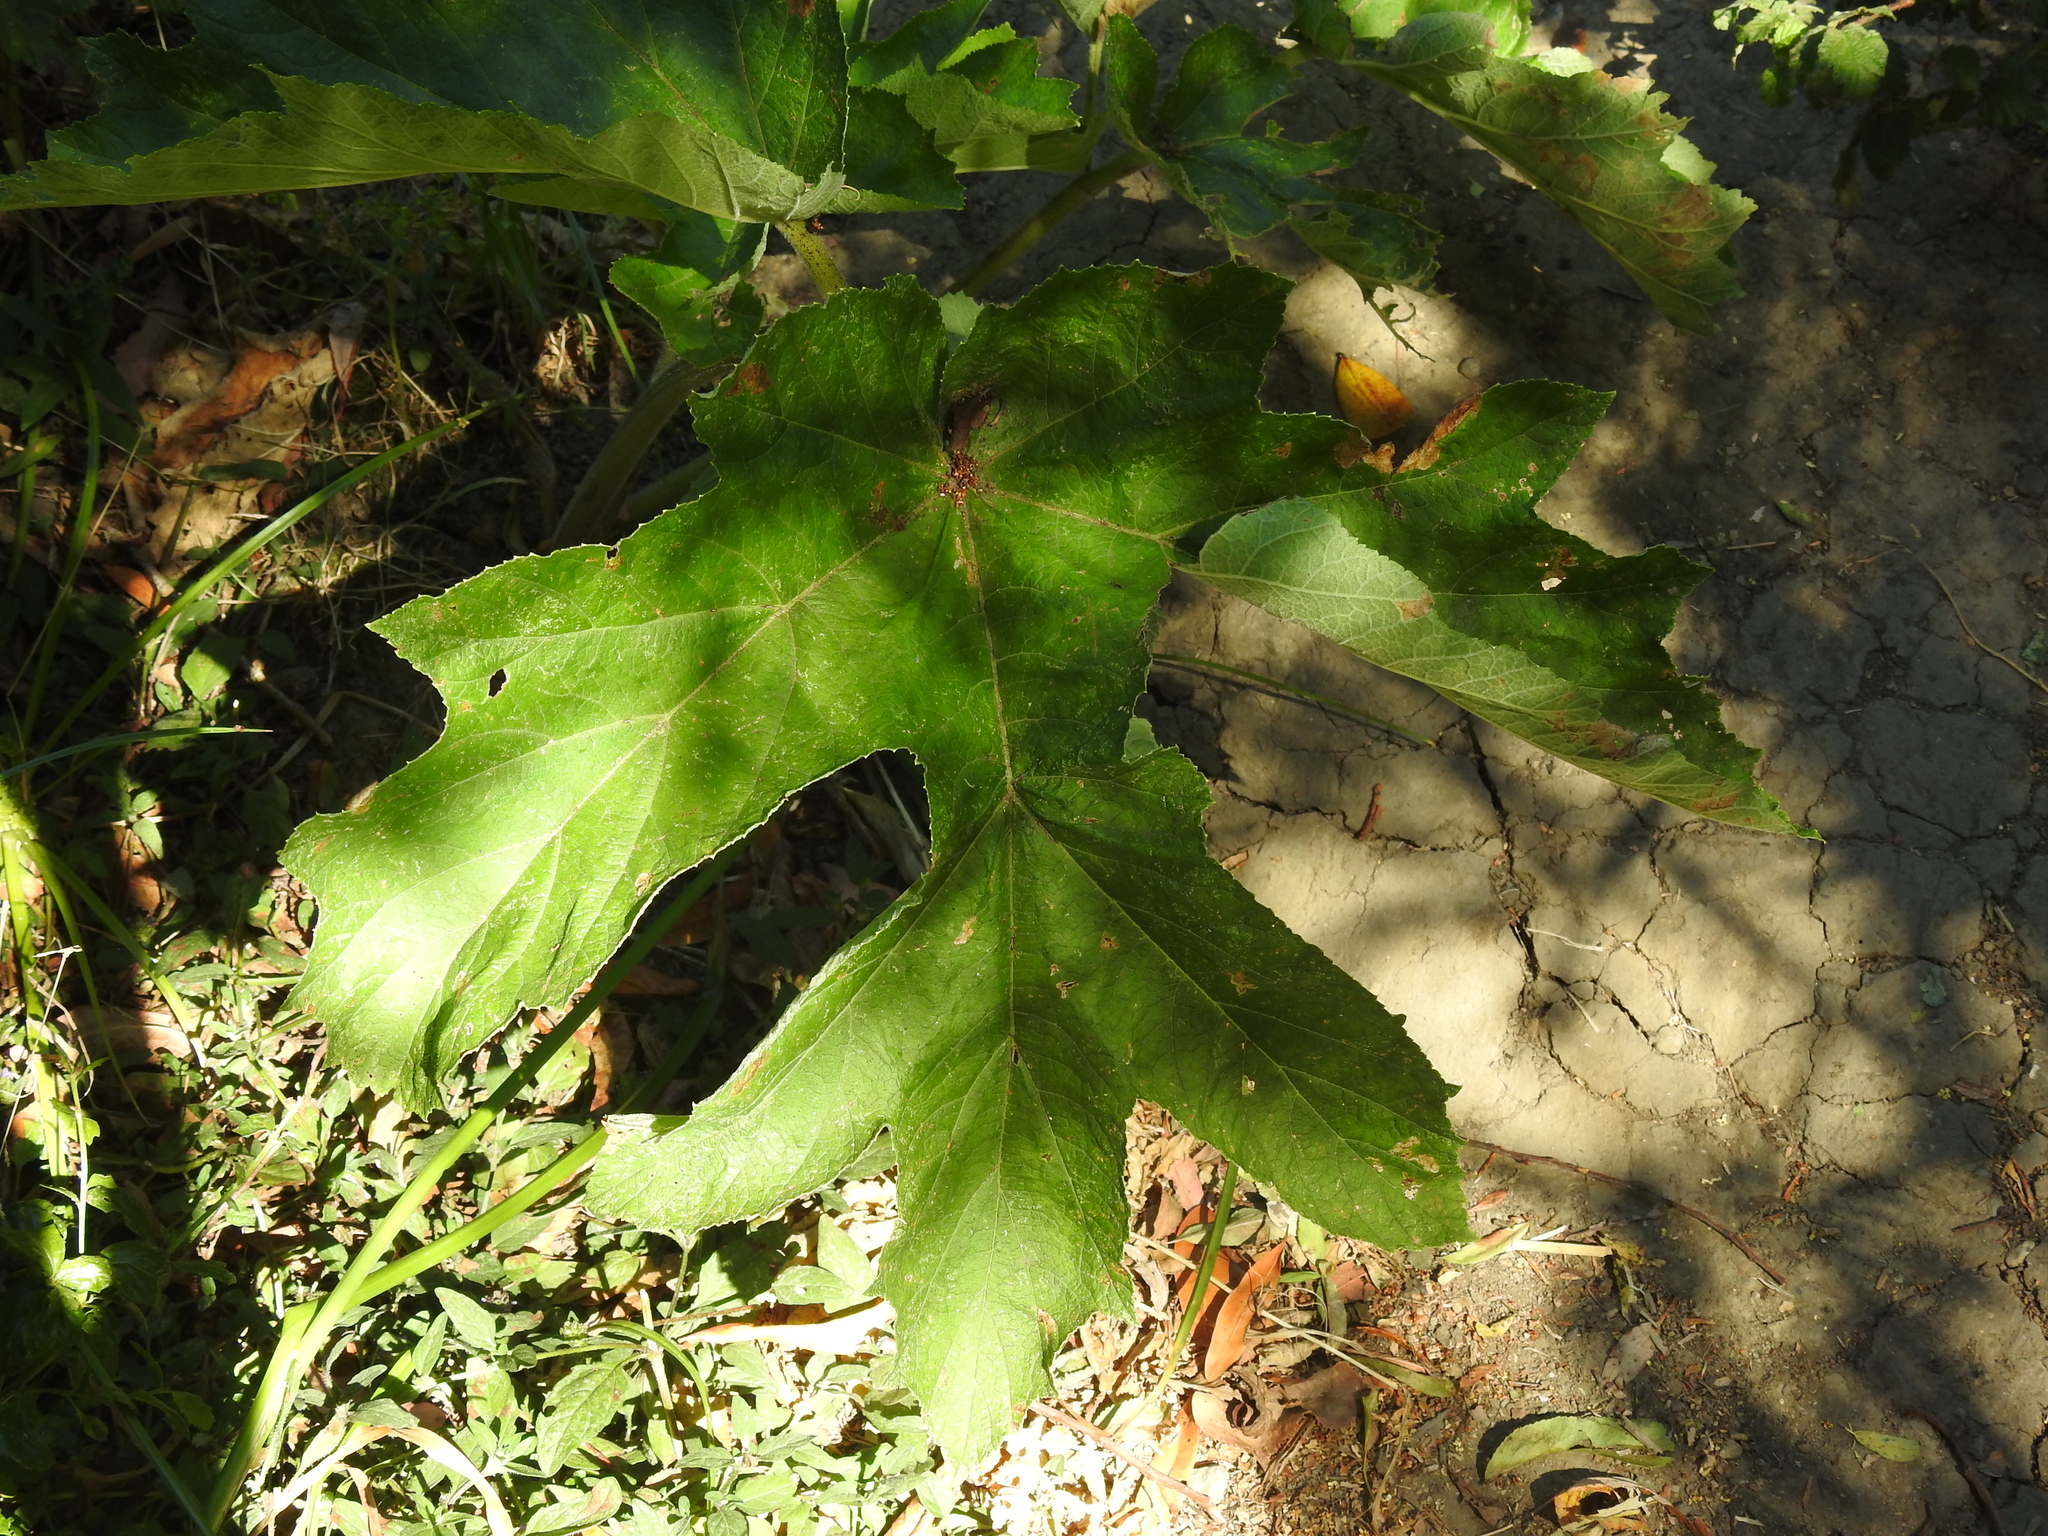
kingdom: Plantae
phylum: Tracheophyta
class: Magnoliopsida
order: Apiales
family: Apiaceae
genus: Heracleum
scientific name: Heracleum maximum
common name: American cow parsnip
